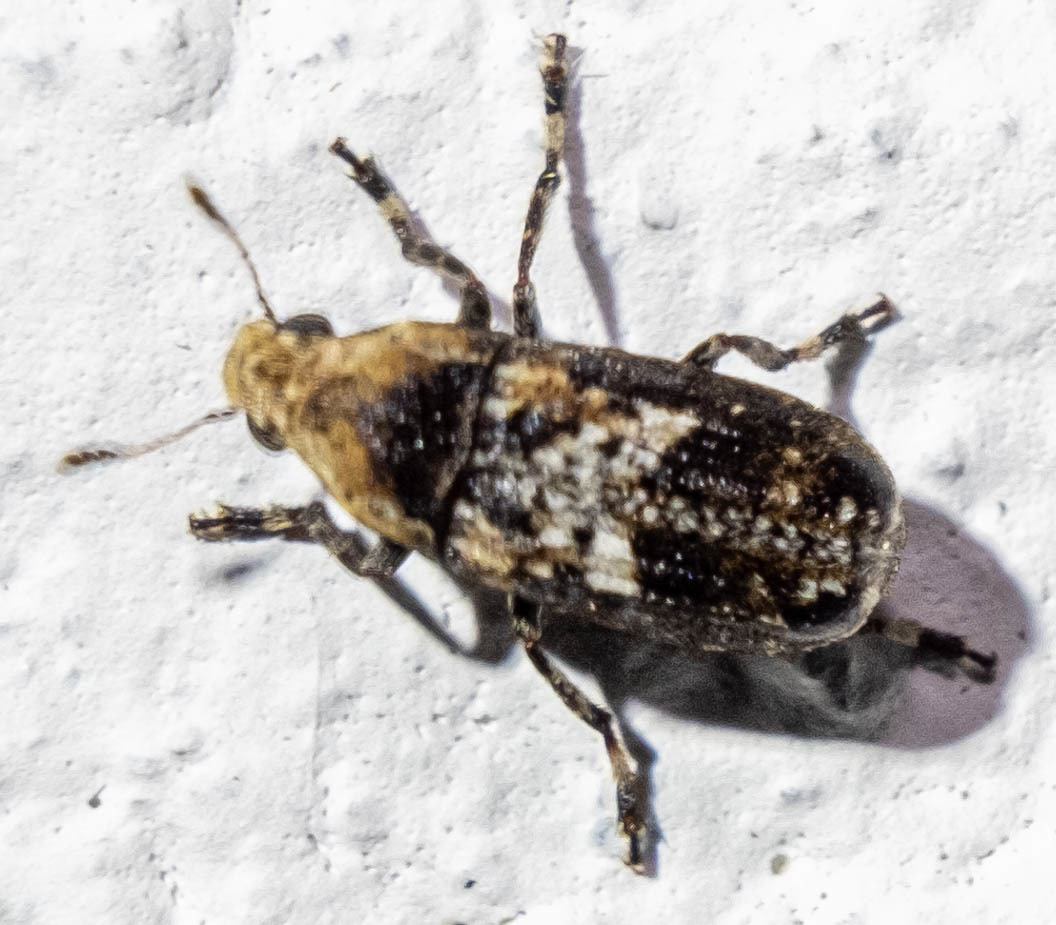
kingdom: Animalia
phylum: Arthropoda
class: Insecta
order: Coleoptera
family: Anthribidae
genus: Euparius
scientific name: Euparius paganus
